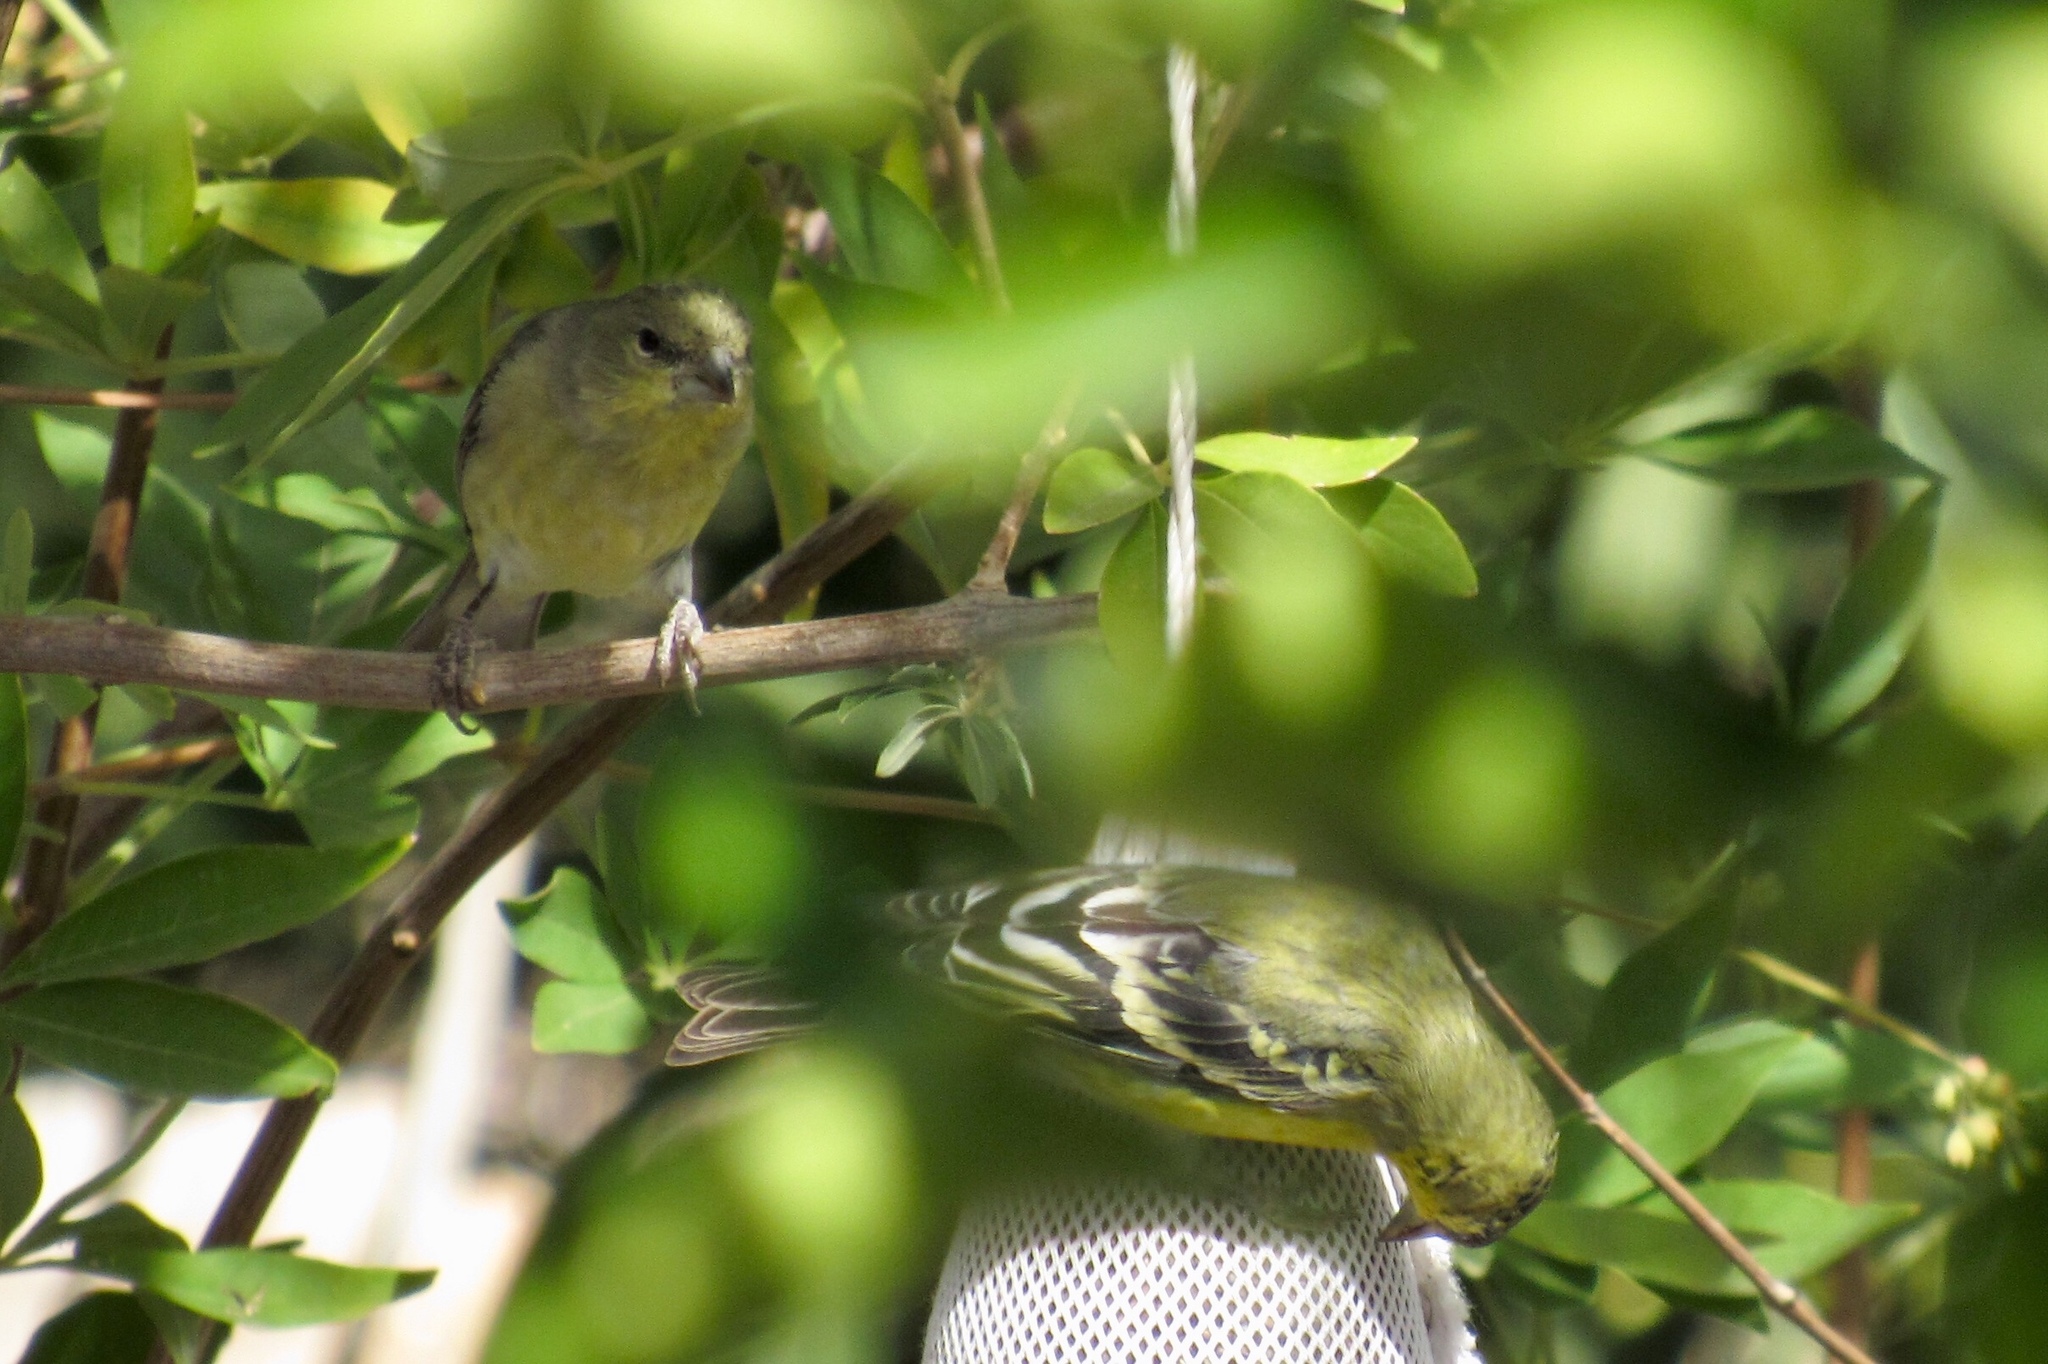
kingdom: Animalia
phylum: Chordata
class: Aves
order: Passeriformes
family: Fringillidae
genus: Spinus
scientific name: Spinus psaltria
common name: Lesser goldfinch
